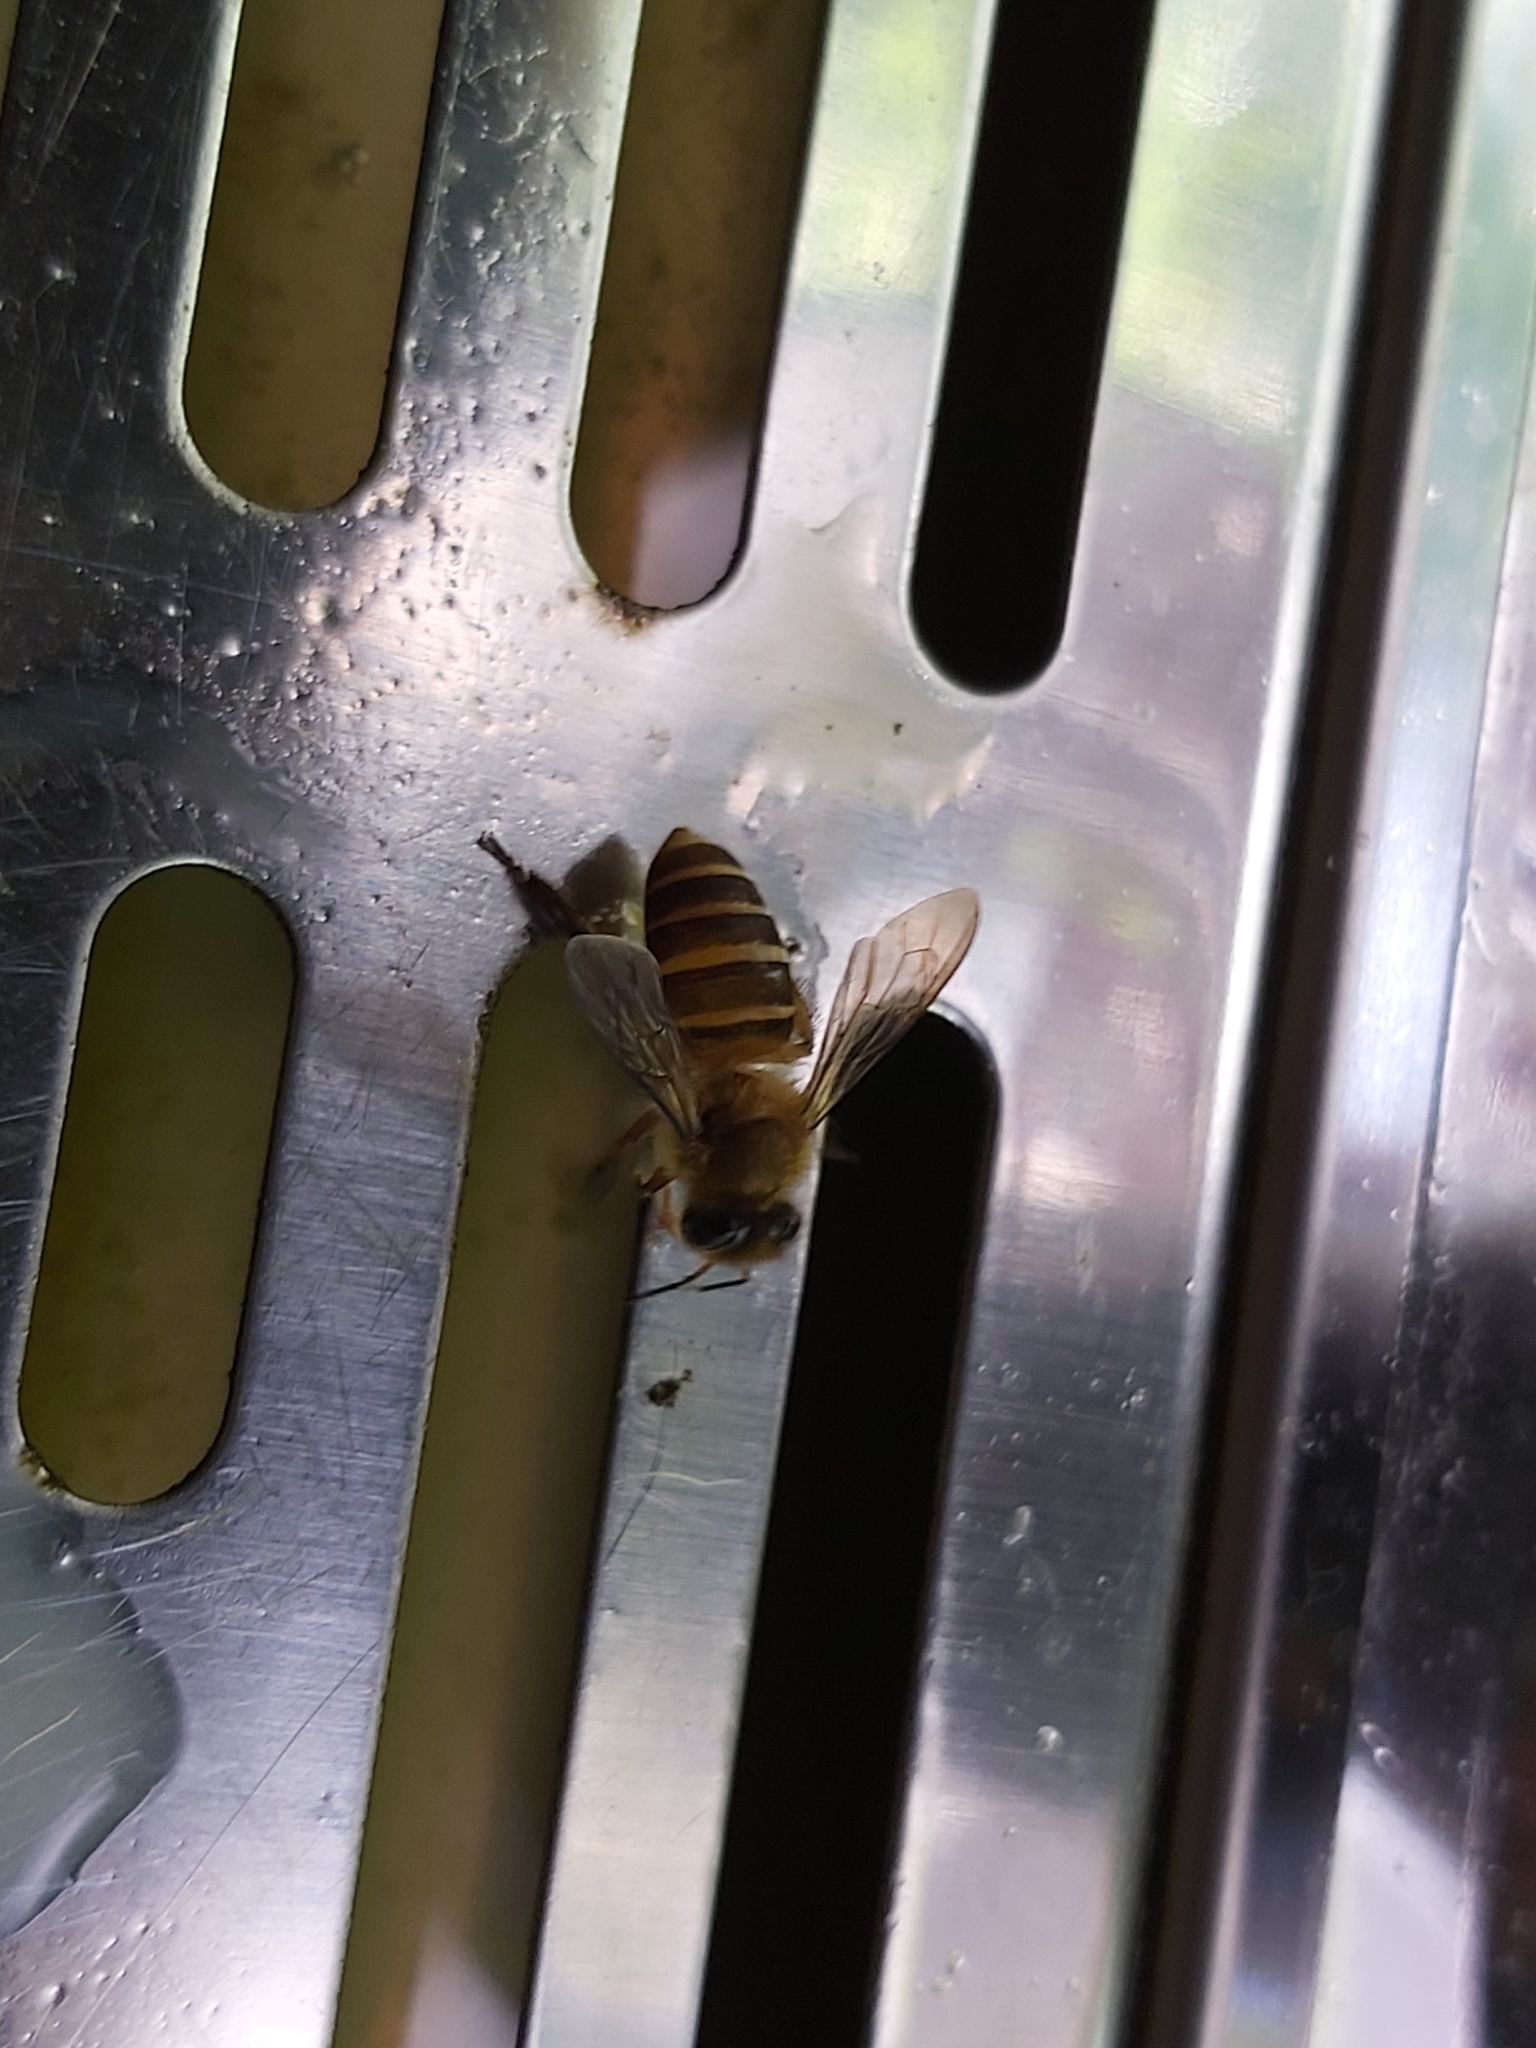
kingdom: Animalia
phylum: Arthropoda
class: Insecta
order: Hymenoptera
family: Apidae
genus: Apis
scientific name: Apis koschevnikovi
